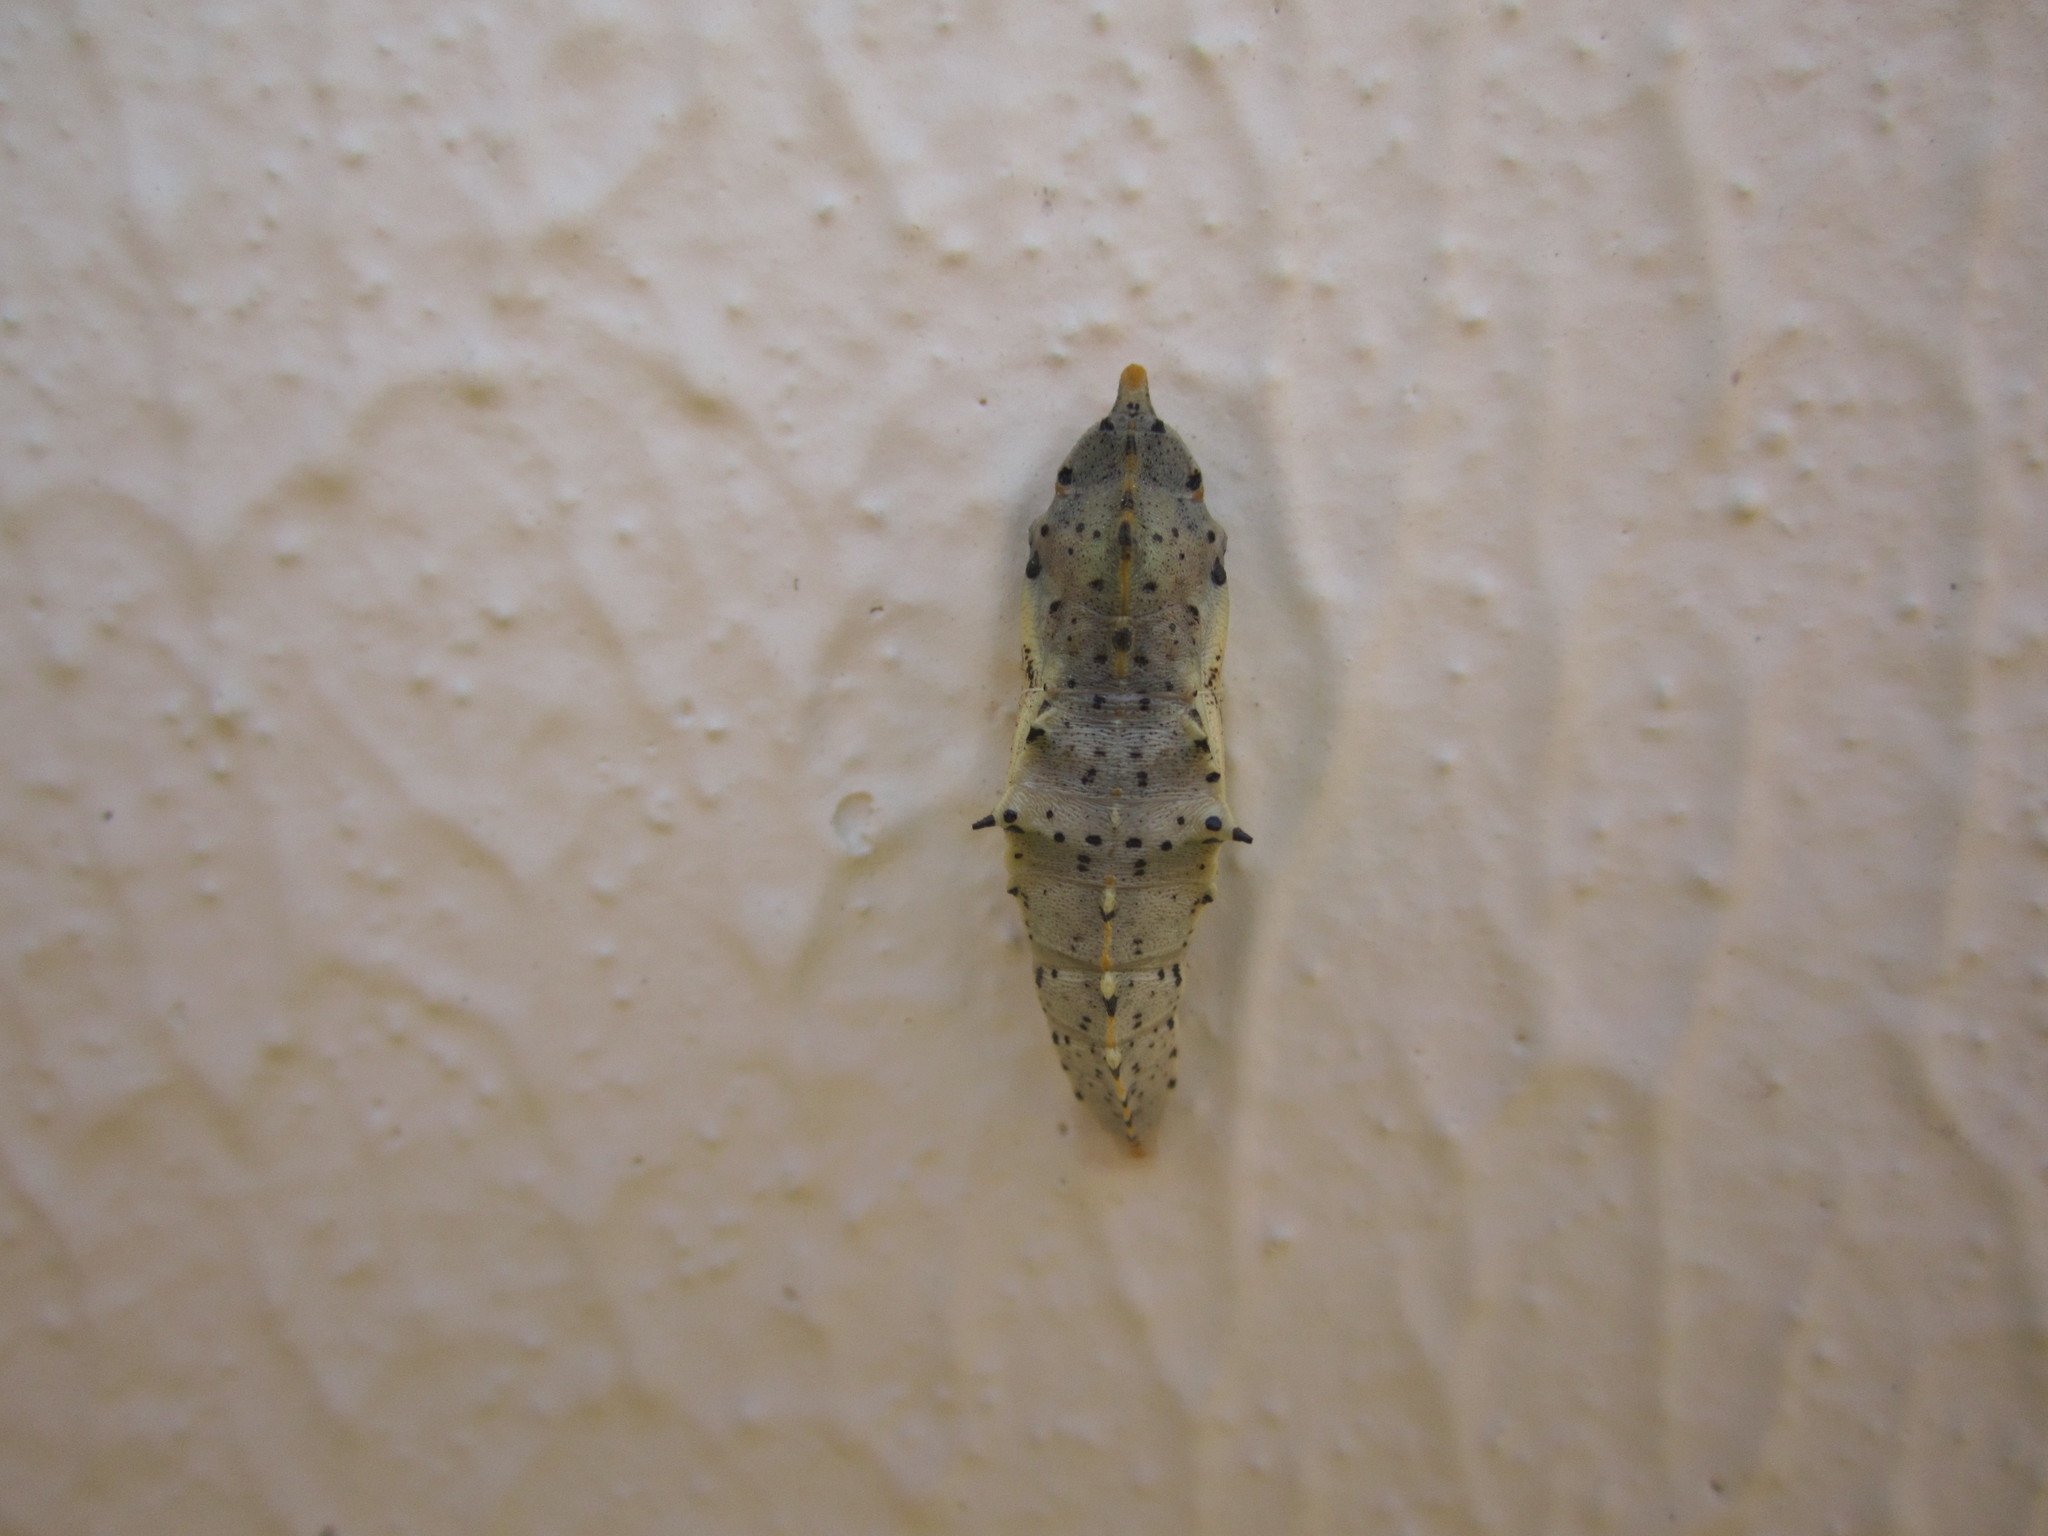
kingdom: Animalia
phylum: Arthropoda
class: Insecta
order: Lepidoptera
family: Pieridae
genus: Pieris
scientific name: Pieris brassicae
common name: Large white
